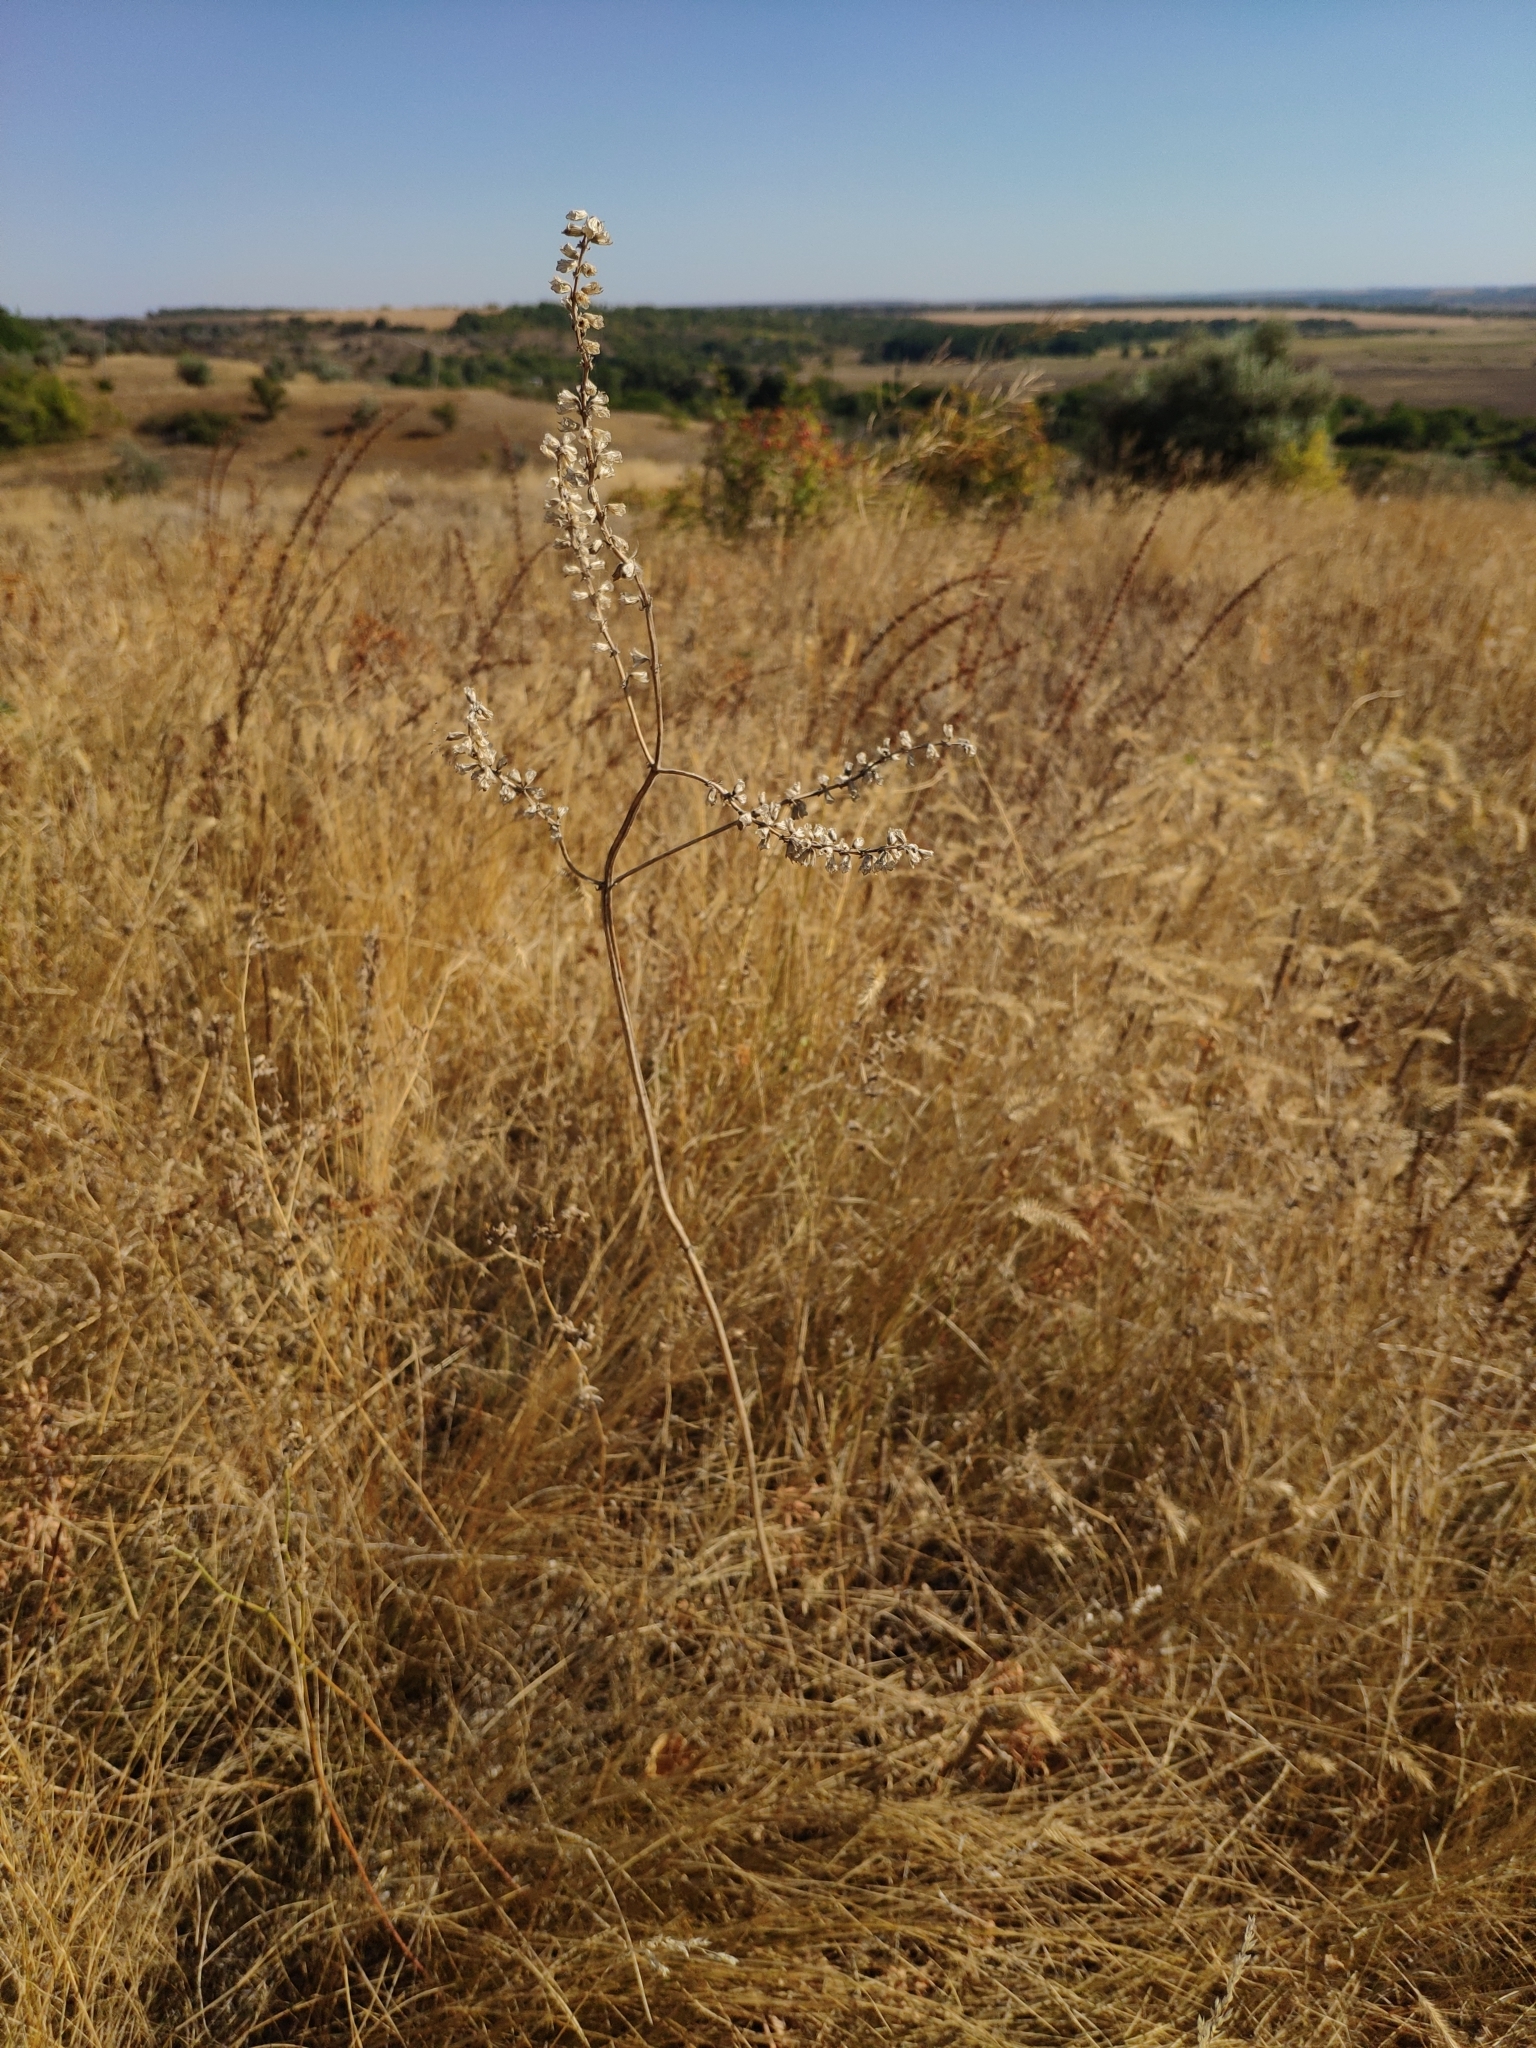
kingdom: Plantae
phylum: Tracheophyta
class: Magnoliopsida
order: Lamiales
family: Lamiaceae
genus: Salvia
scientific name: Salvia nutans
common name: Nodding sage
